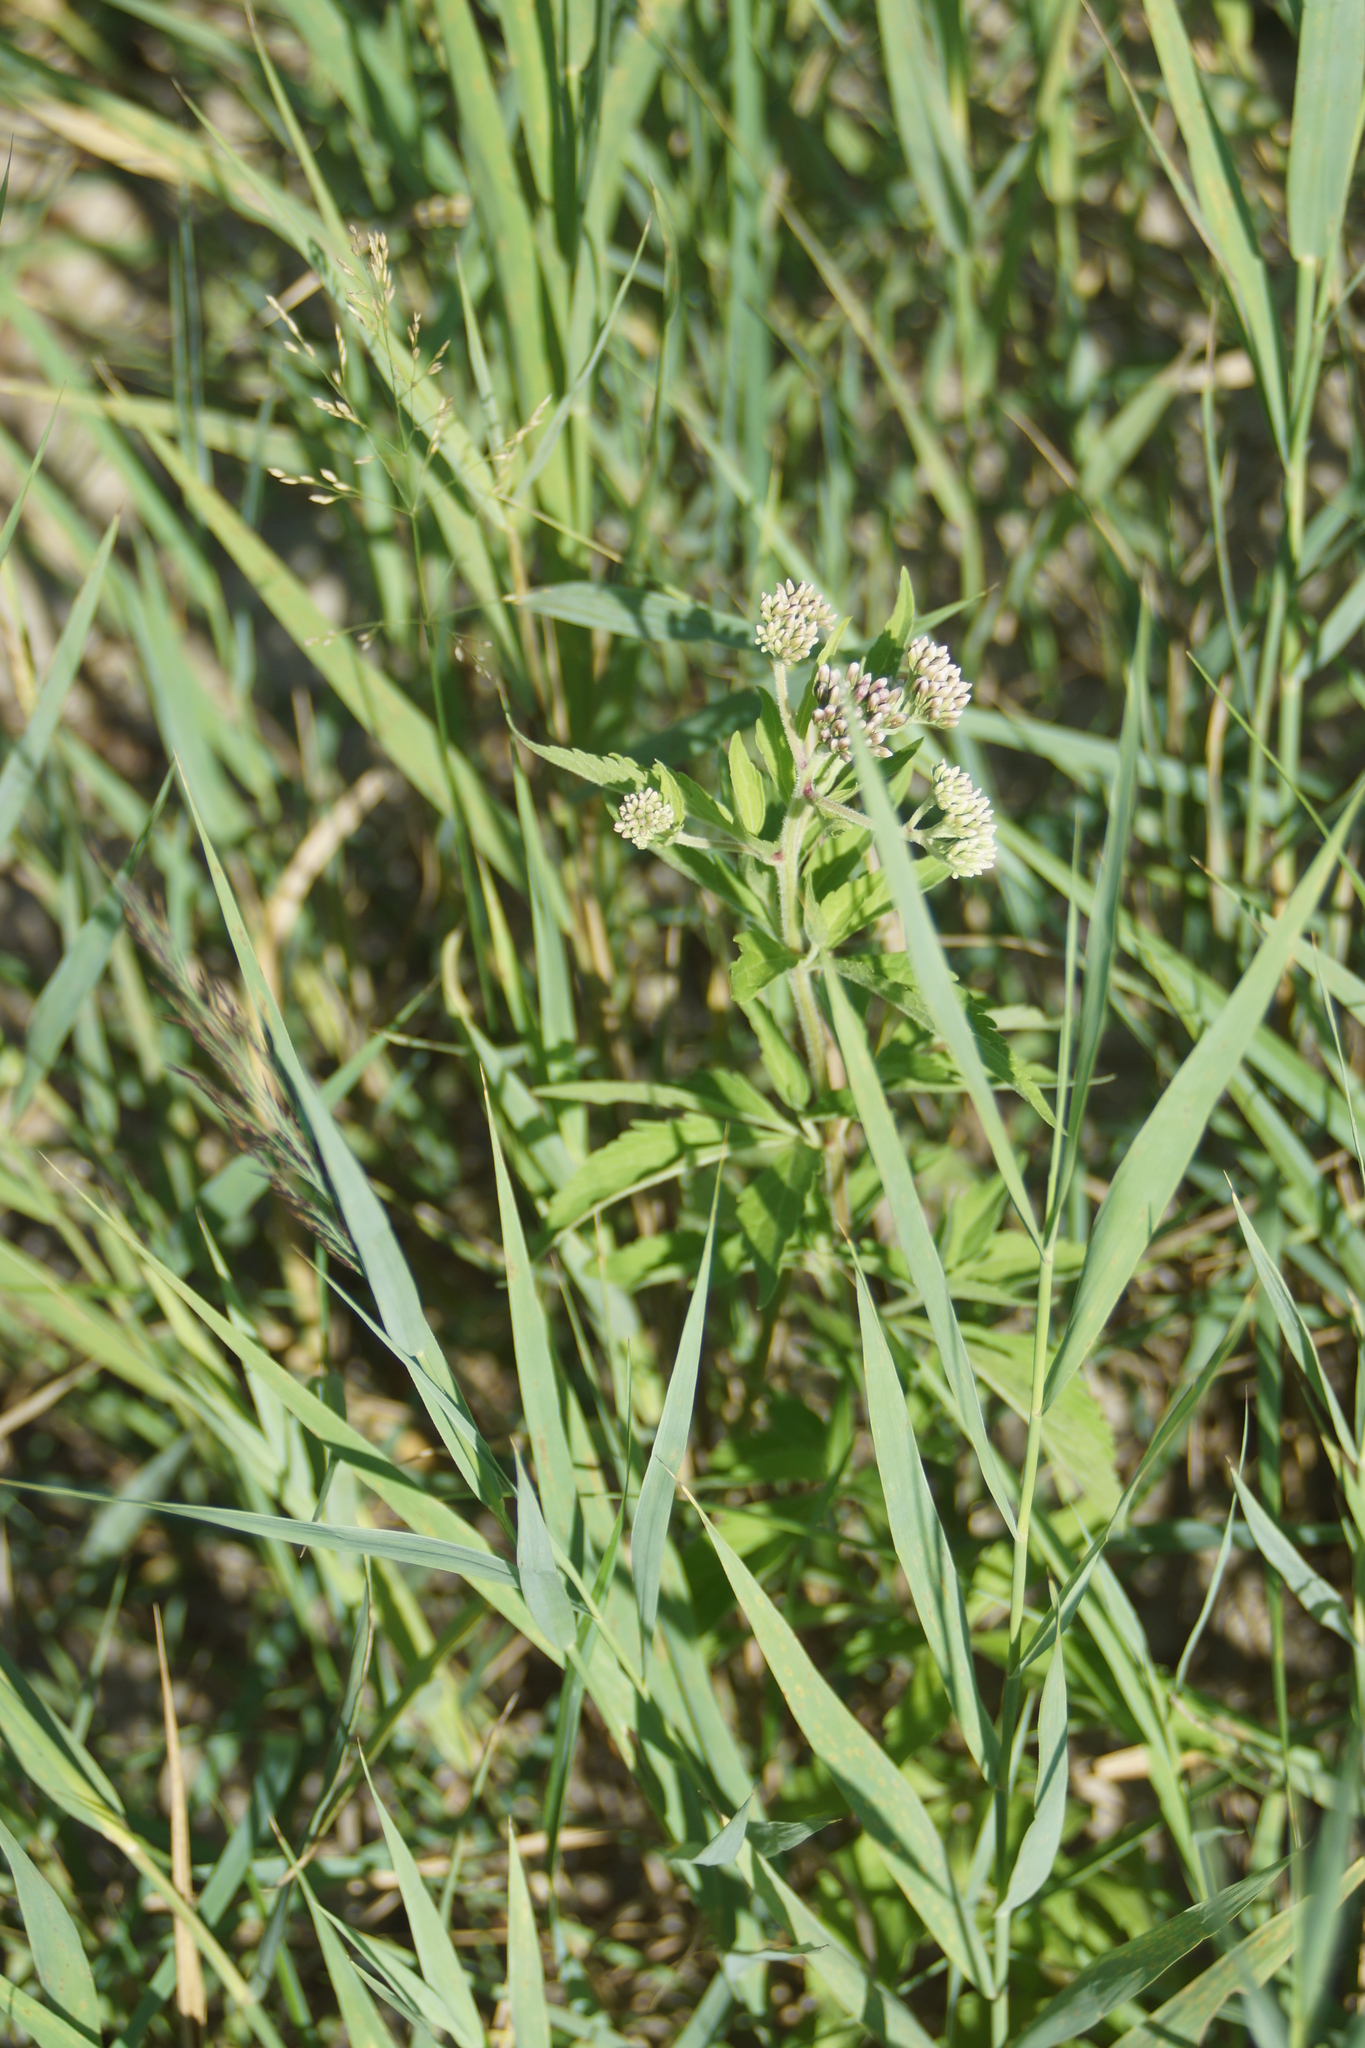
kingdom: Plantae
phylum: Tracheophyta
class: Magnoliopsida
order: Asterales
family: Asteraceae
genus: Eupatorium
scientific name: Eupatorium cannabinum
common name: Hemp-agrimony
